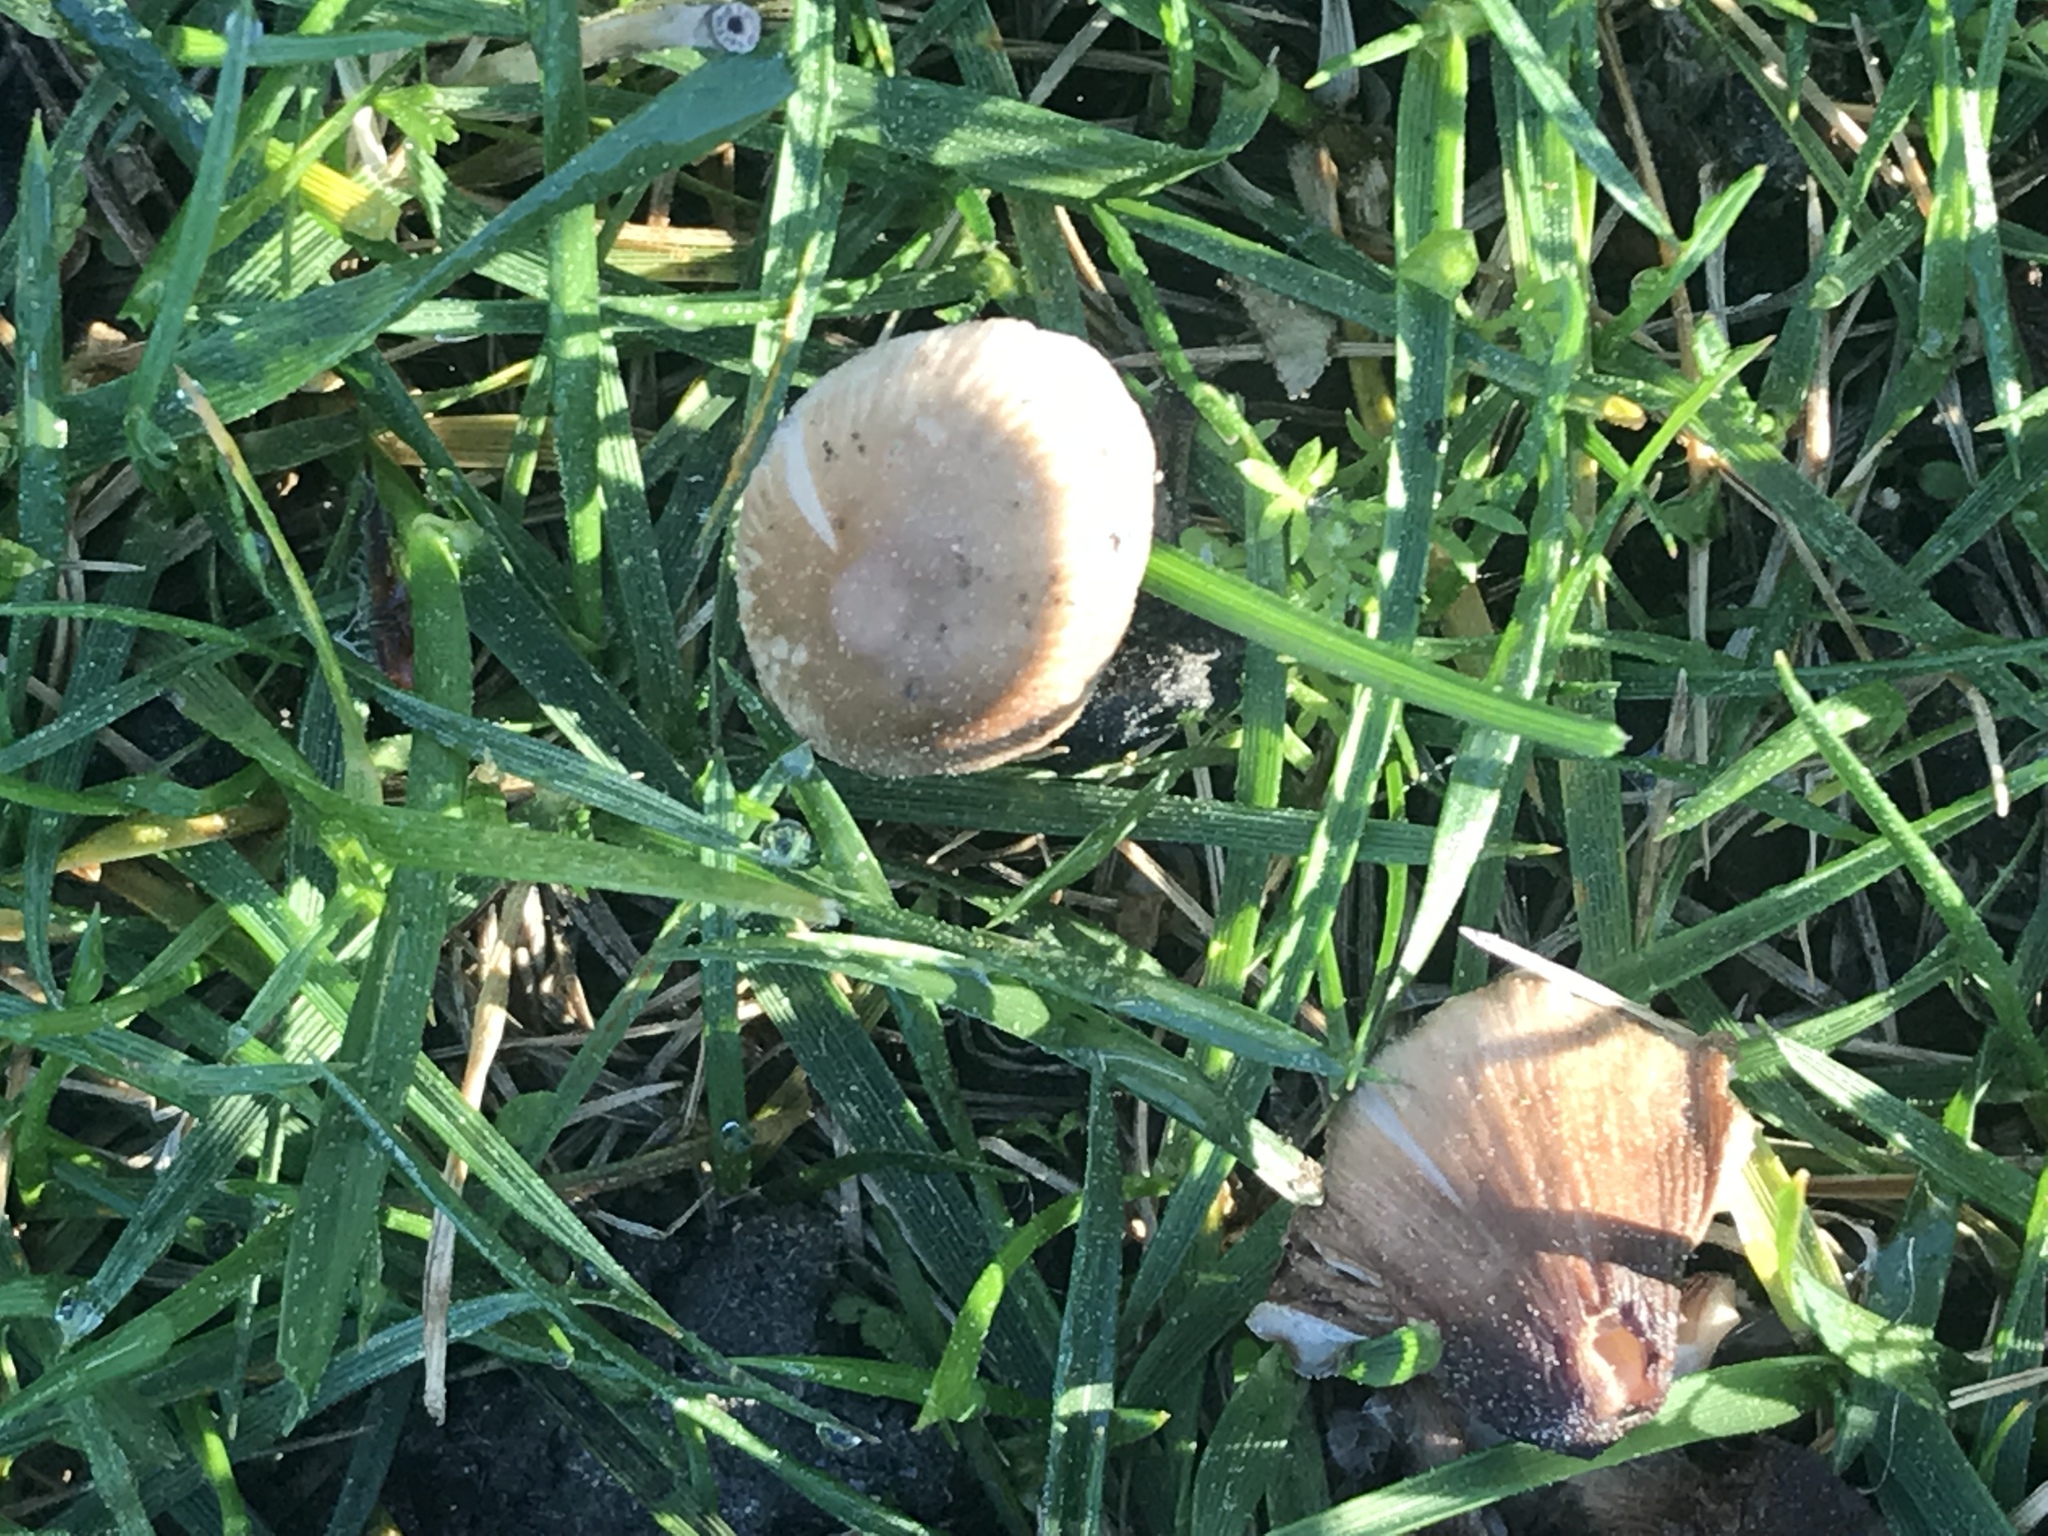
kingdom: Fungi
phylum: Basidiomycota
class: Agaricomycetes
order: Agaricales
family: Psathyrellaceae
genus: Coprinellus
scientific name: Coprinellus micaceus
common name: Glistening ink-cap
